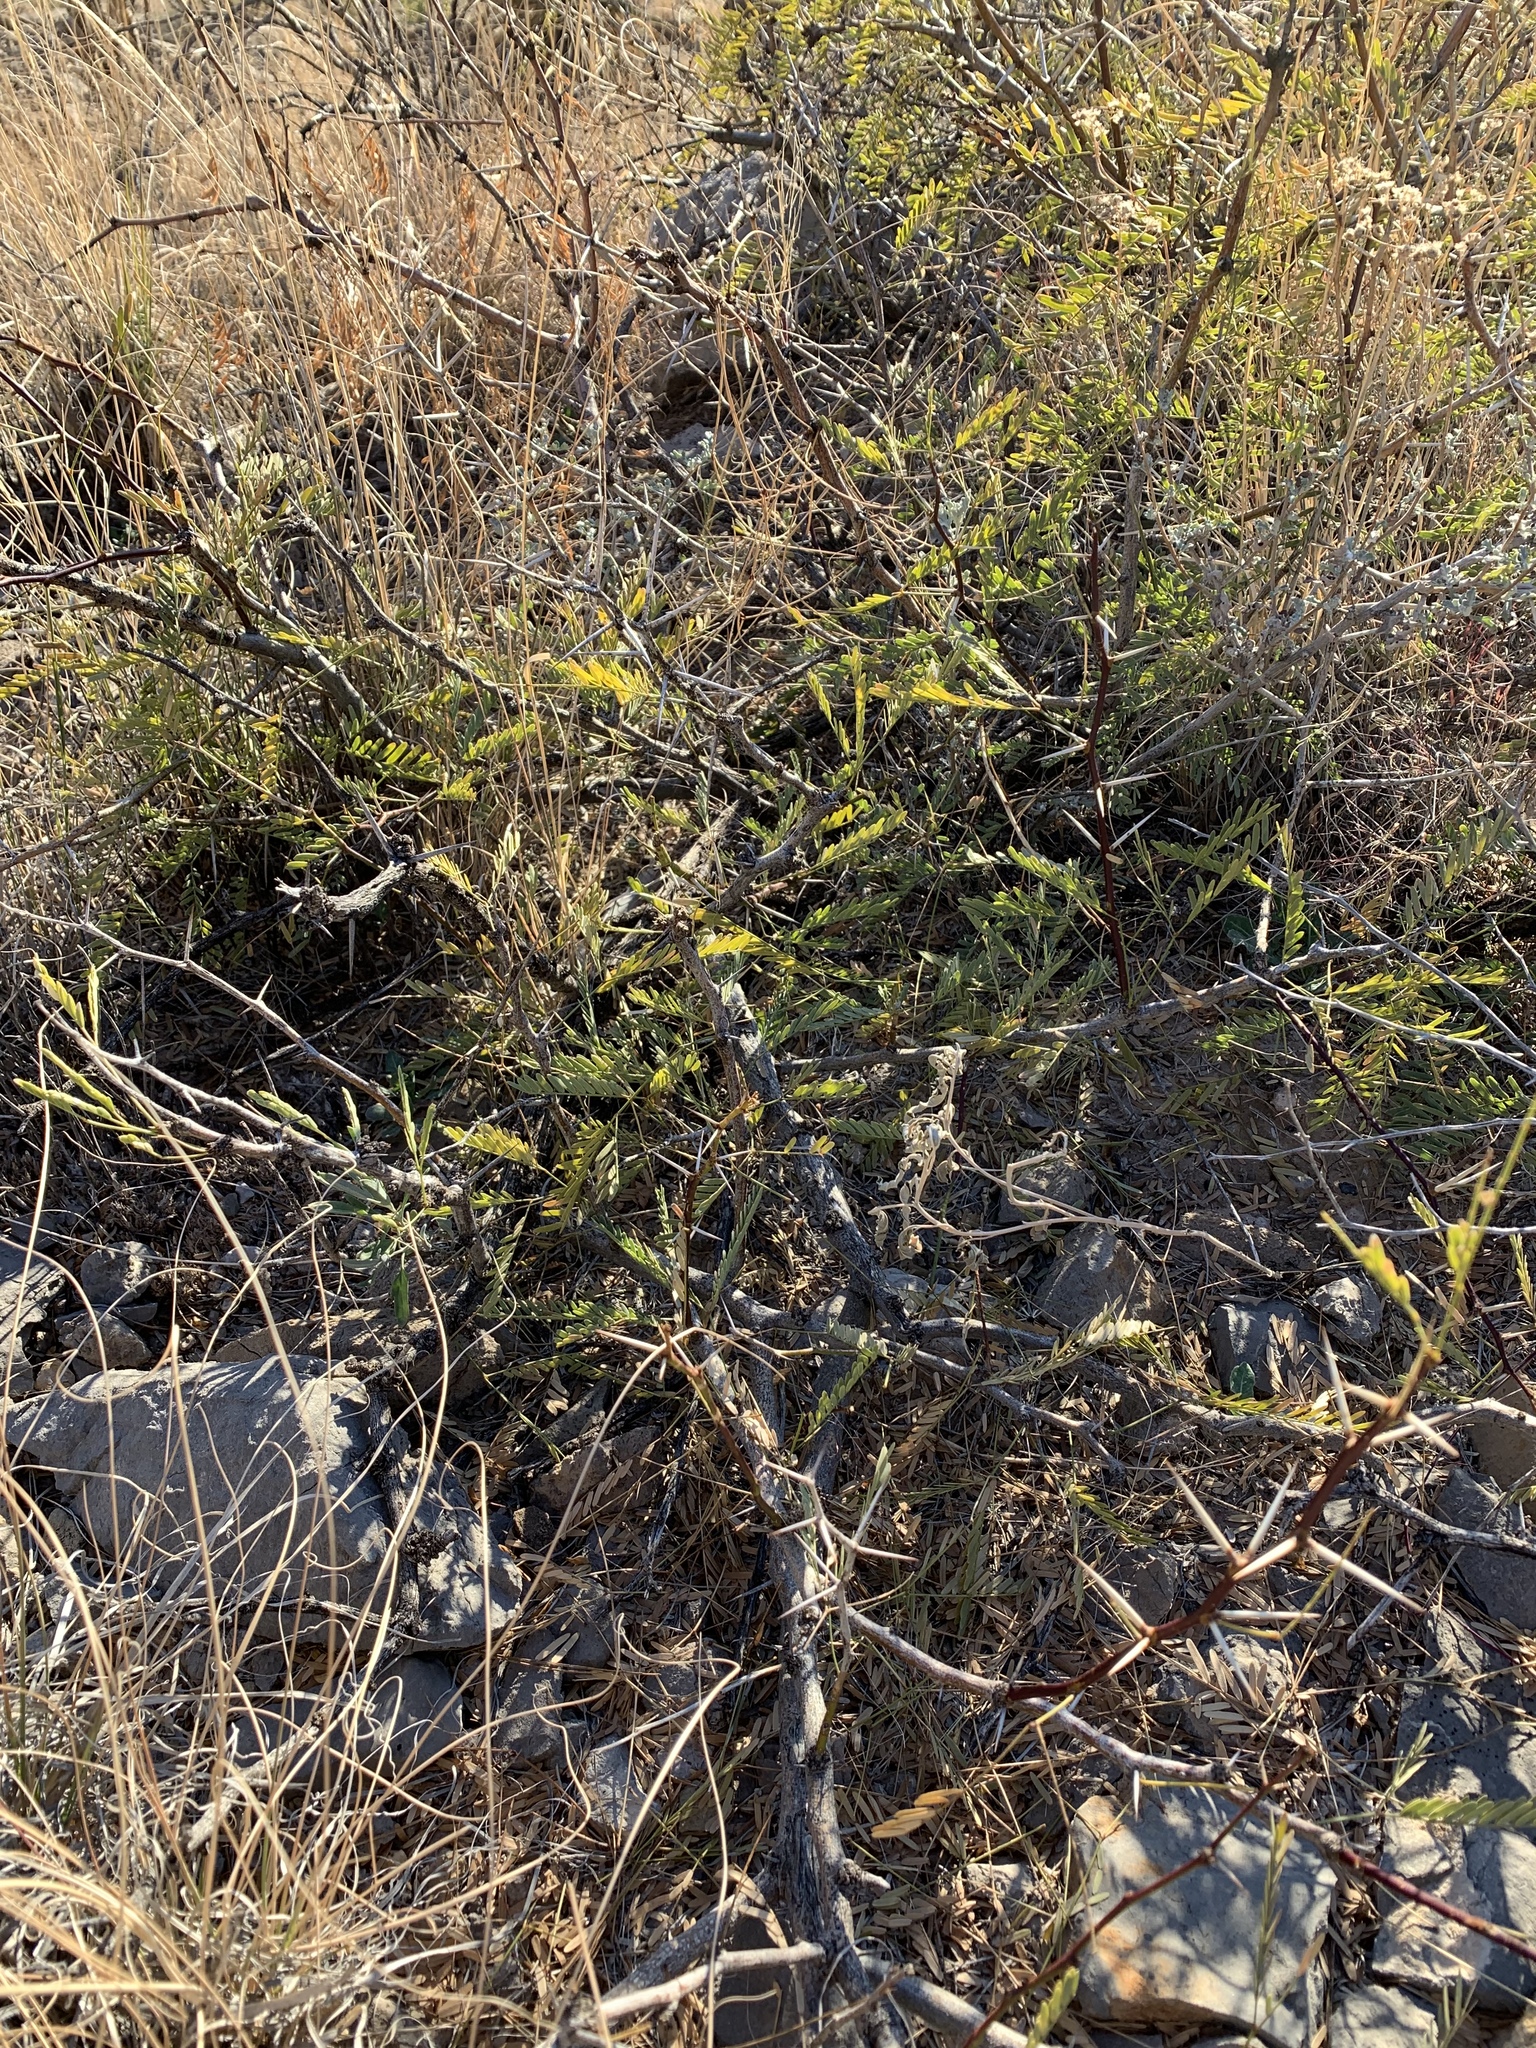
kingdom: Plantae
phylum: Tracheophyta
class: Magnoliopsida
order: Fabales
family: Fabaceae
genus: Prosopis
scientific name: Prosopis glandulosa
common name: Honey mesquite
